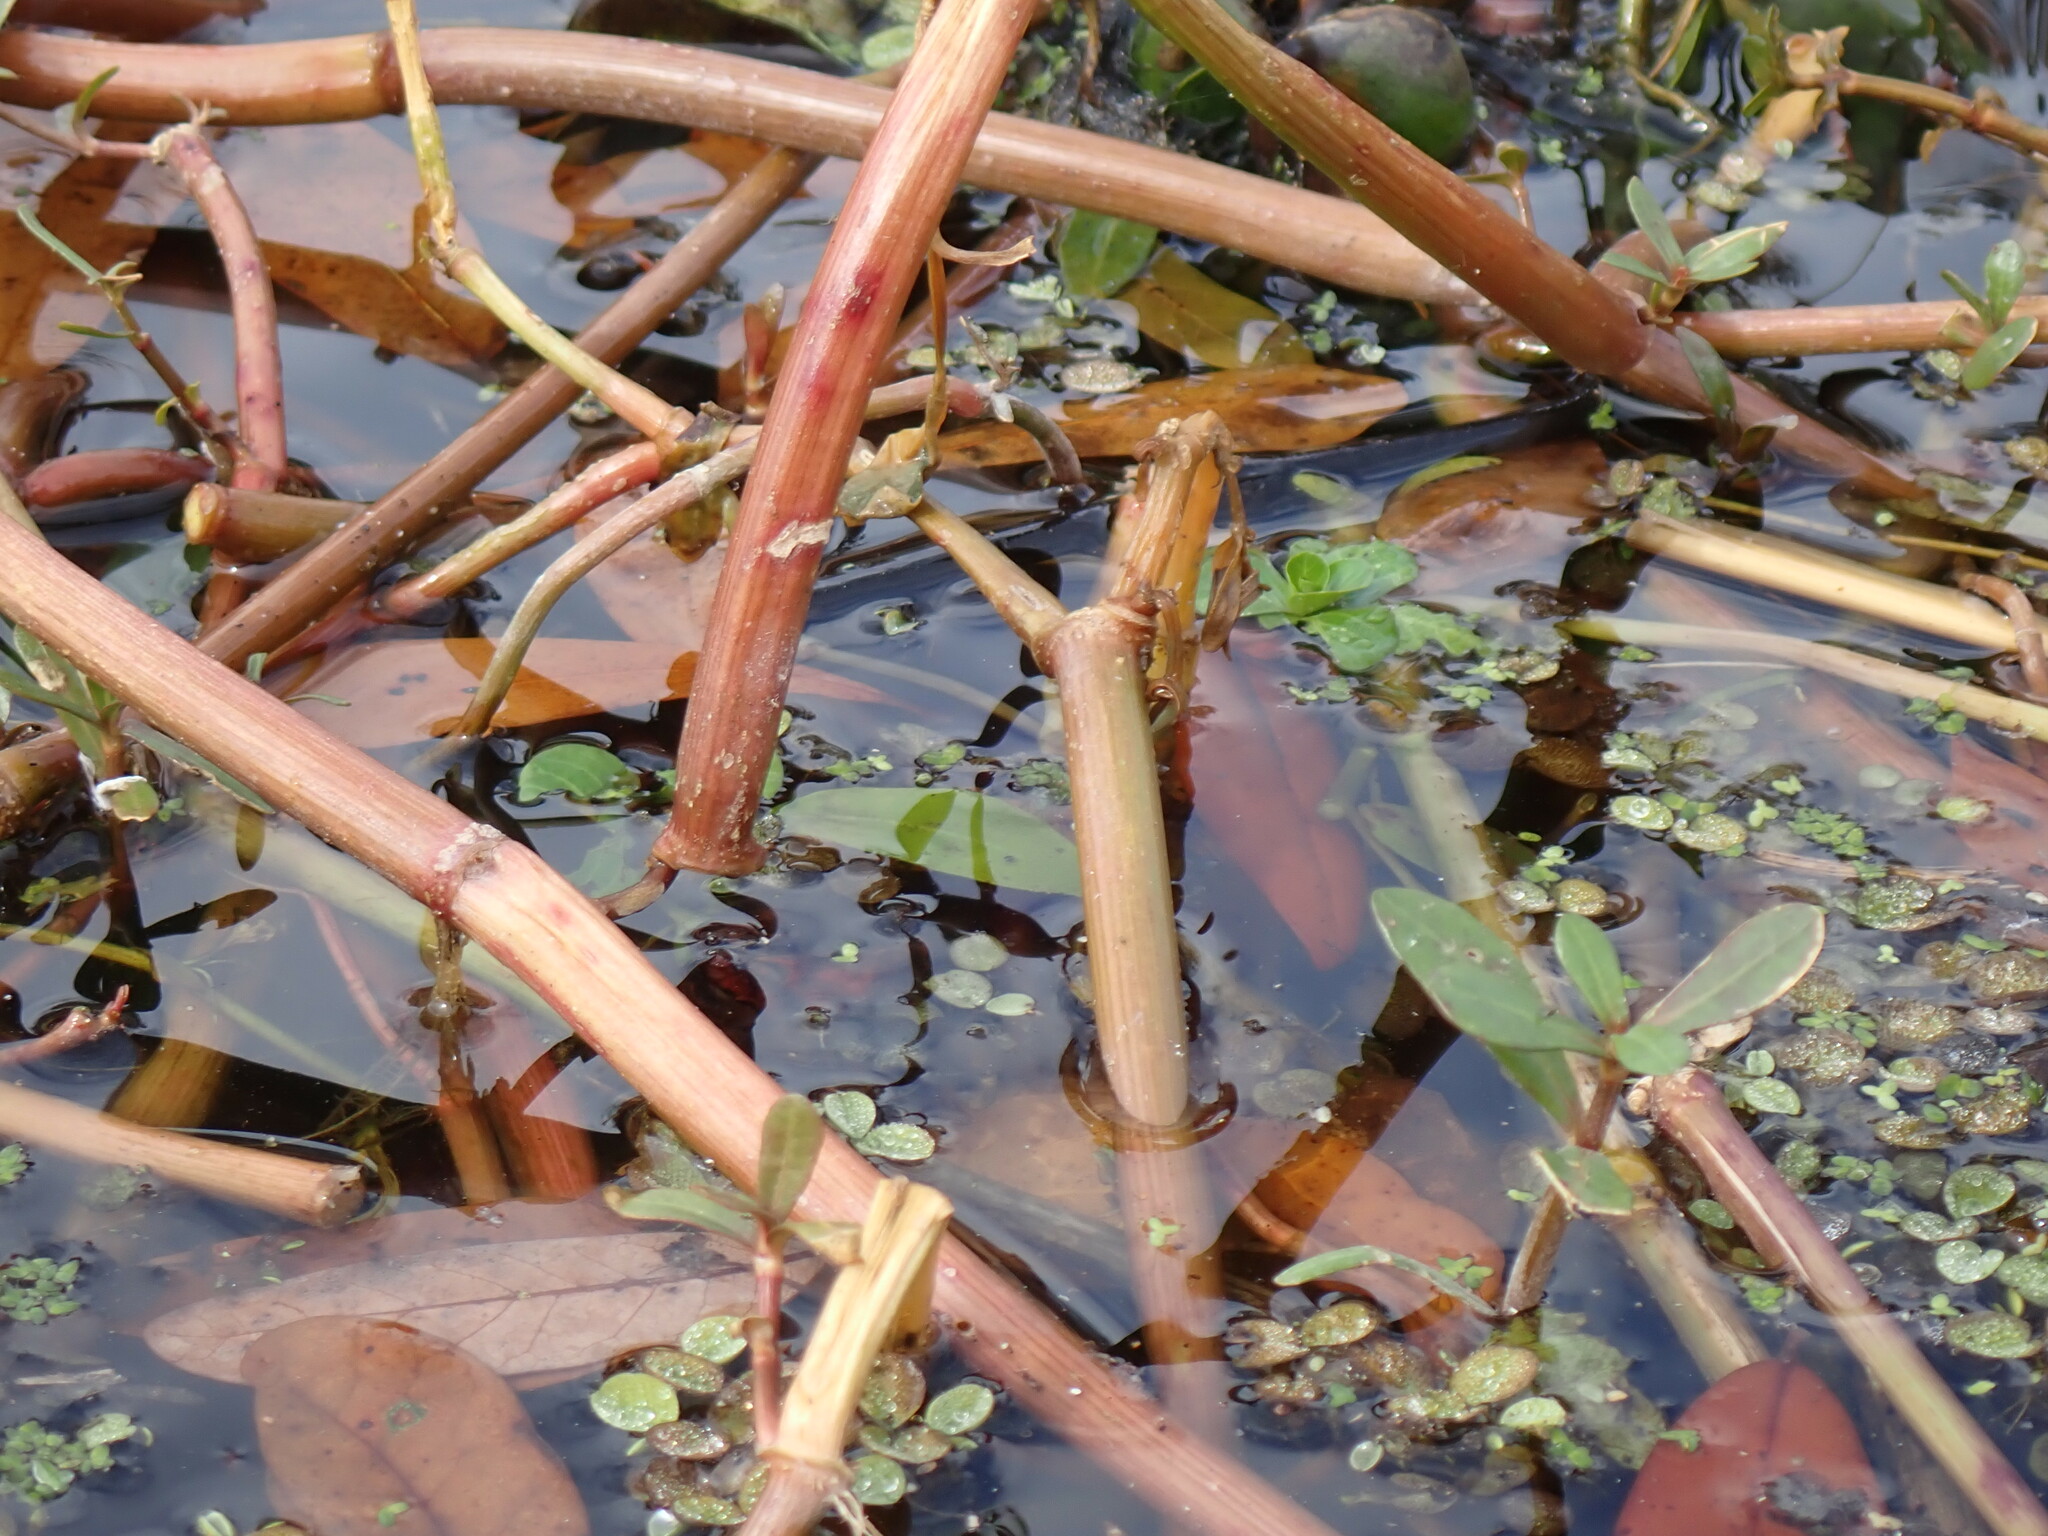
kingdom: Plantae
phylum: Tracheophyta
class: Magnoliopsida
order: Caryophyllales
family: Amaranthaceae
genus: Alternanthera
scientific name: Alternanthera philoxeroides
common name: Alligatorweed
